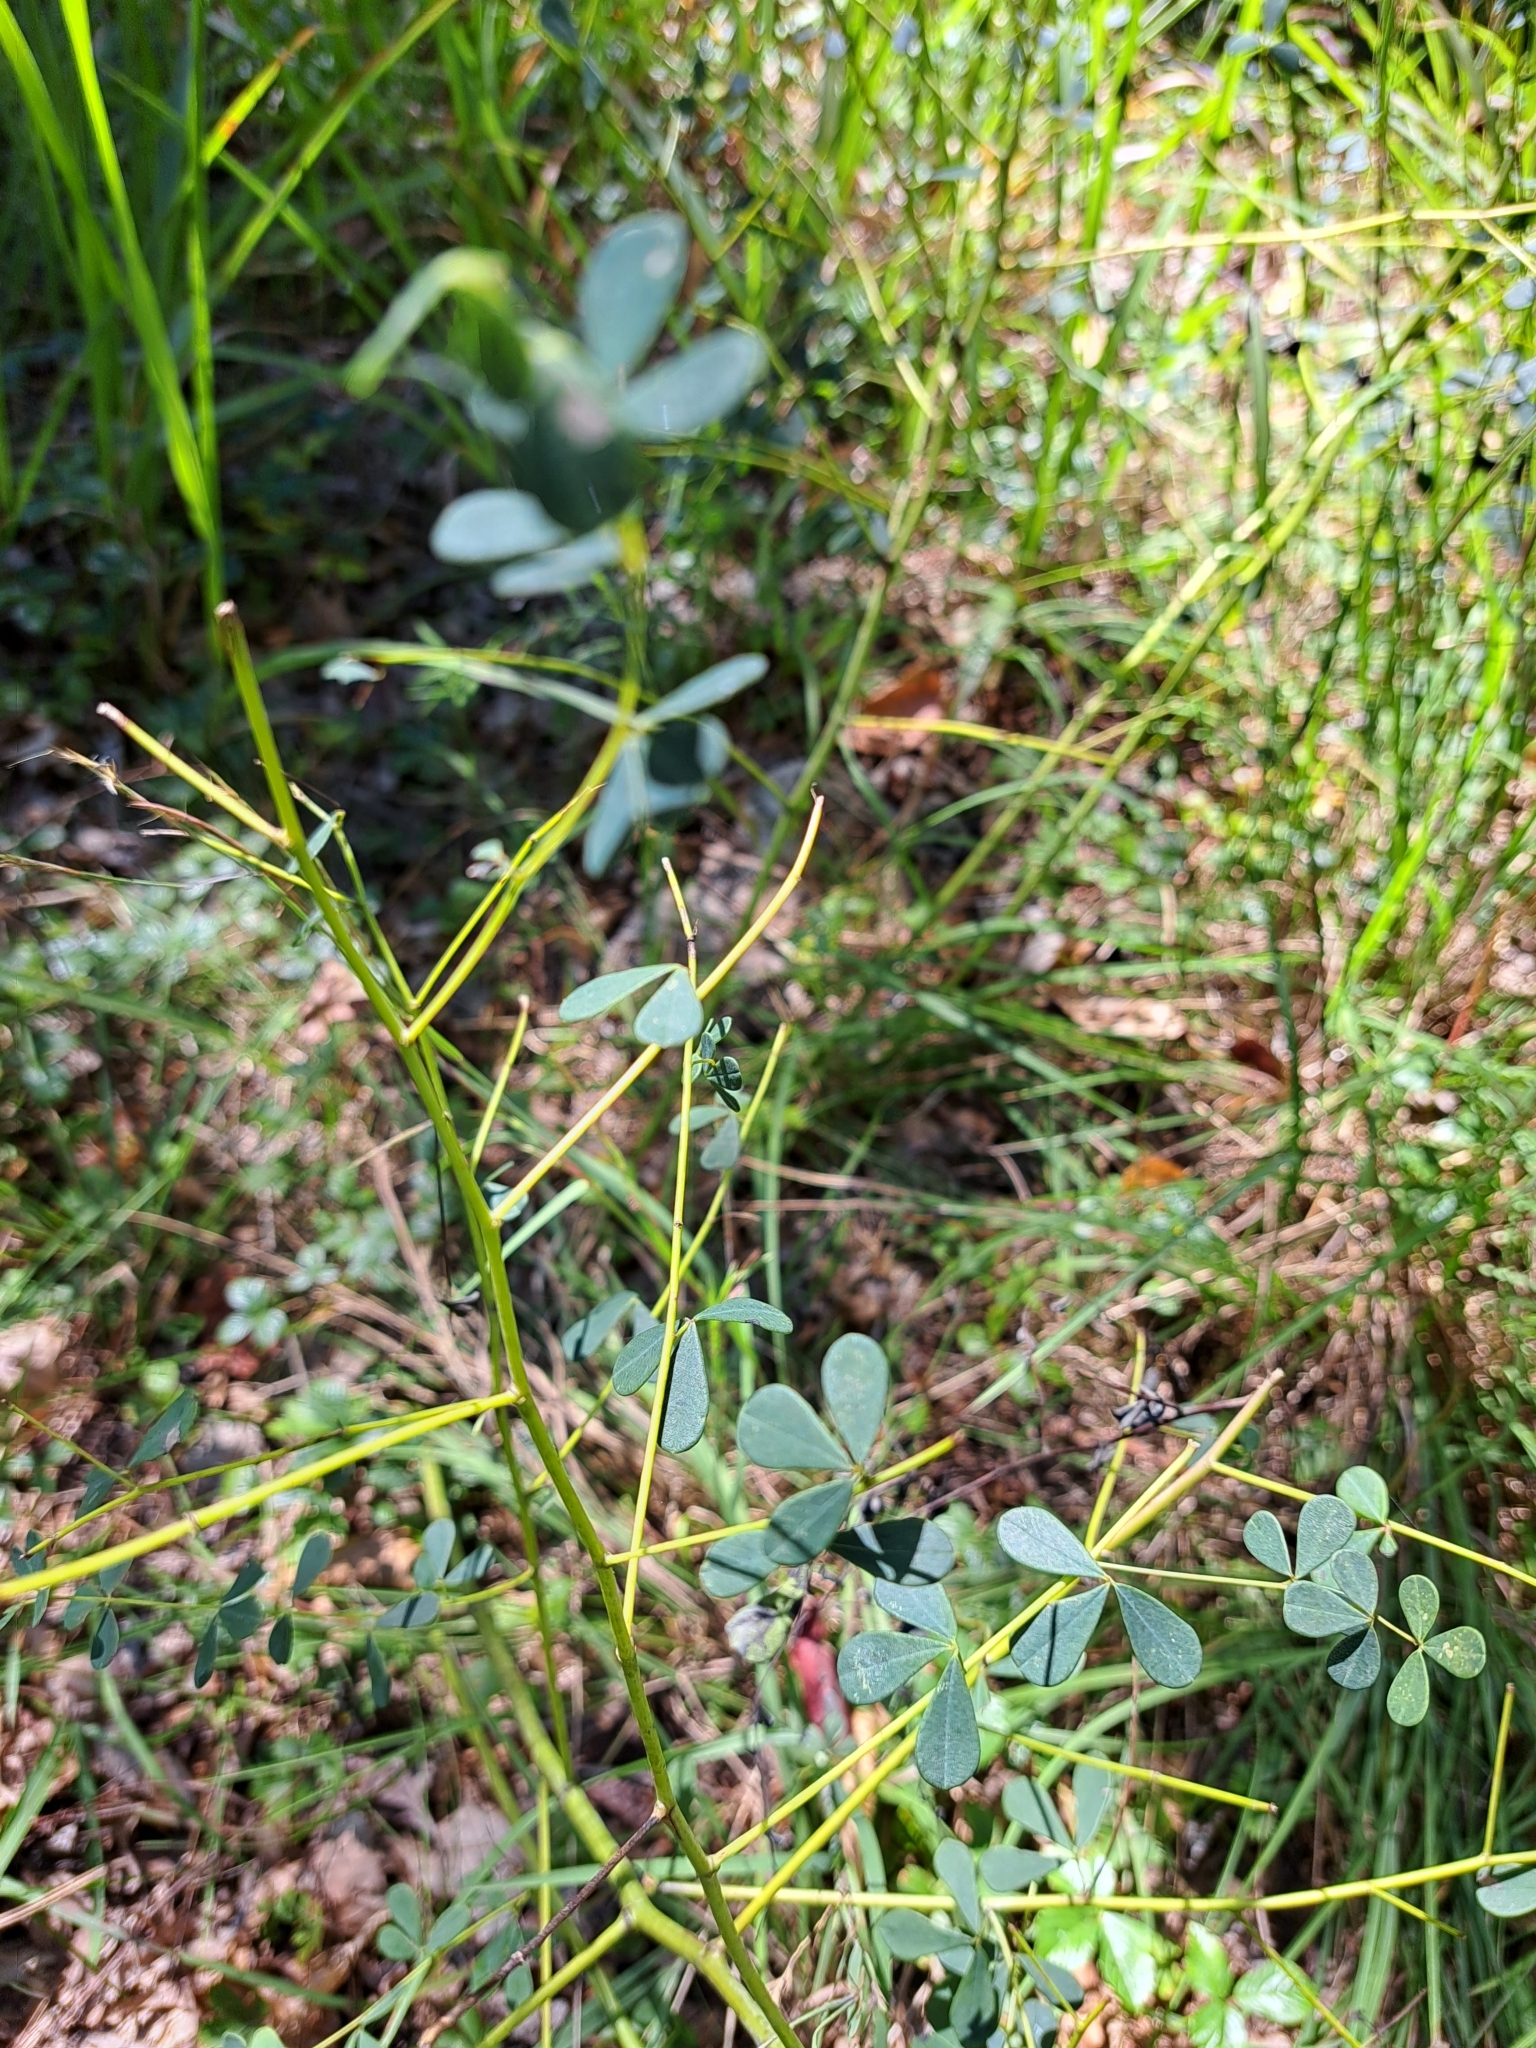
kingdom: Plantae
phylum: Tracheophyta
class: Magnoliopsida
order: Fabales
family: Fabaceae
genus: Baptisia
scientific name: Baptisia tinctoria
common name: Wild indigo
